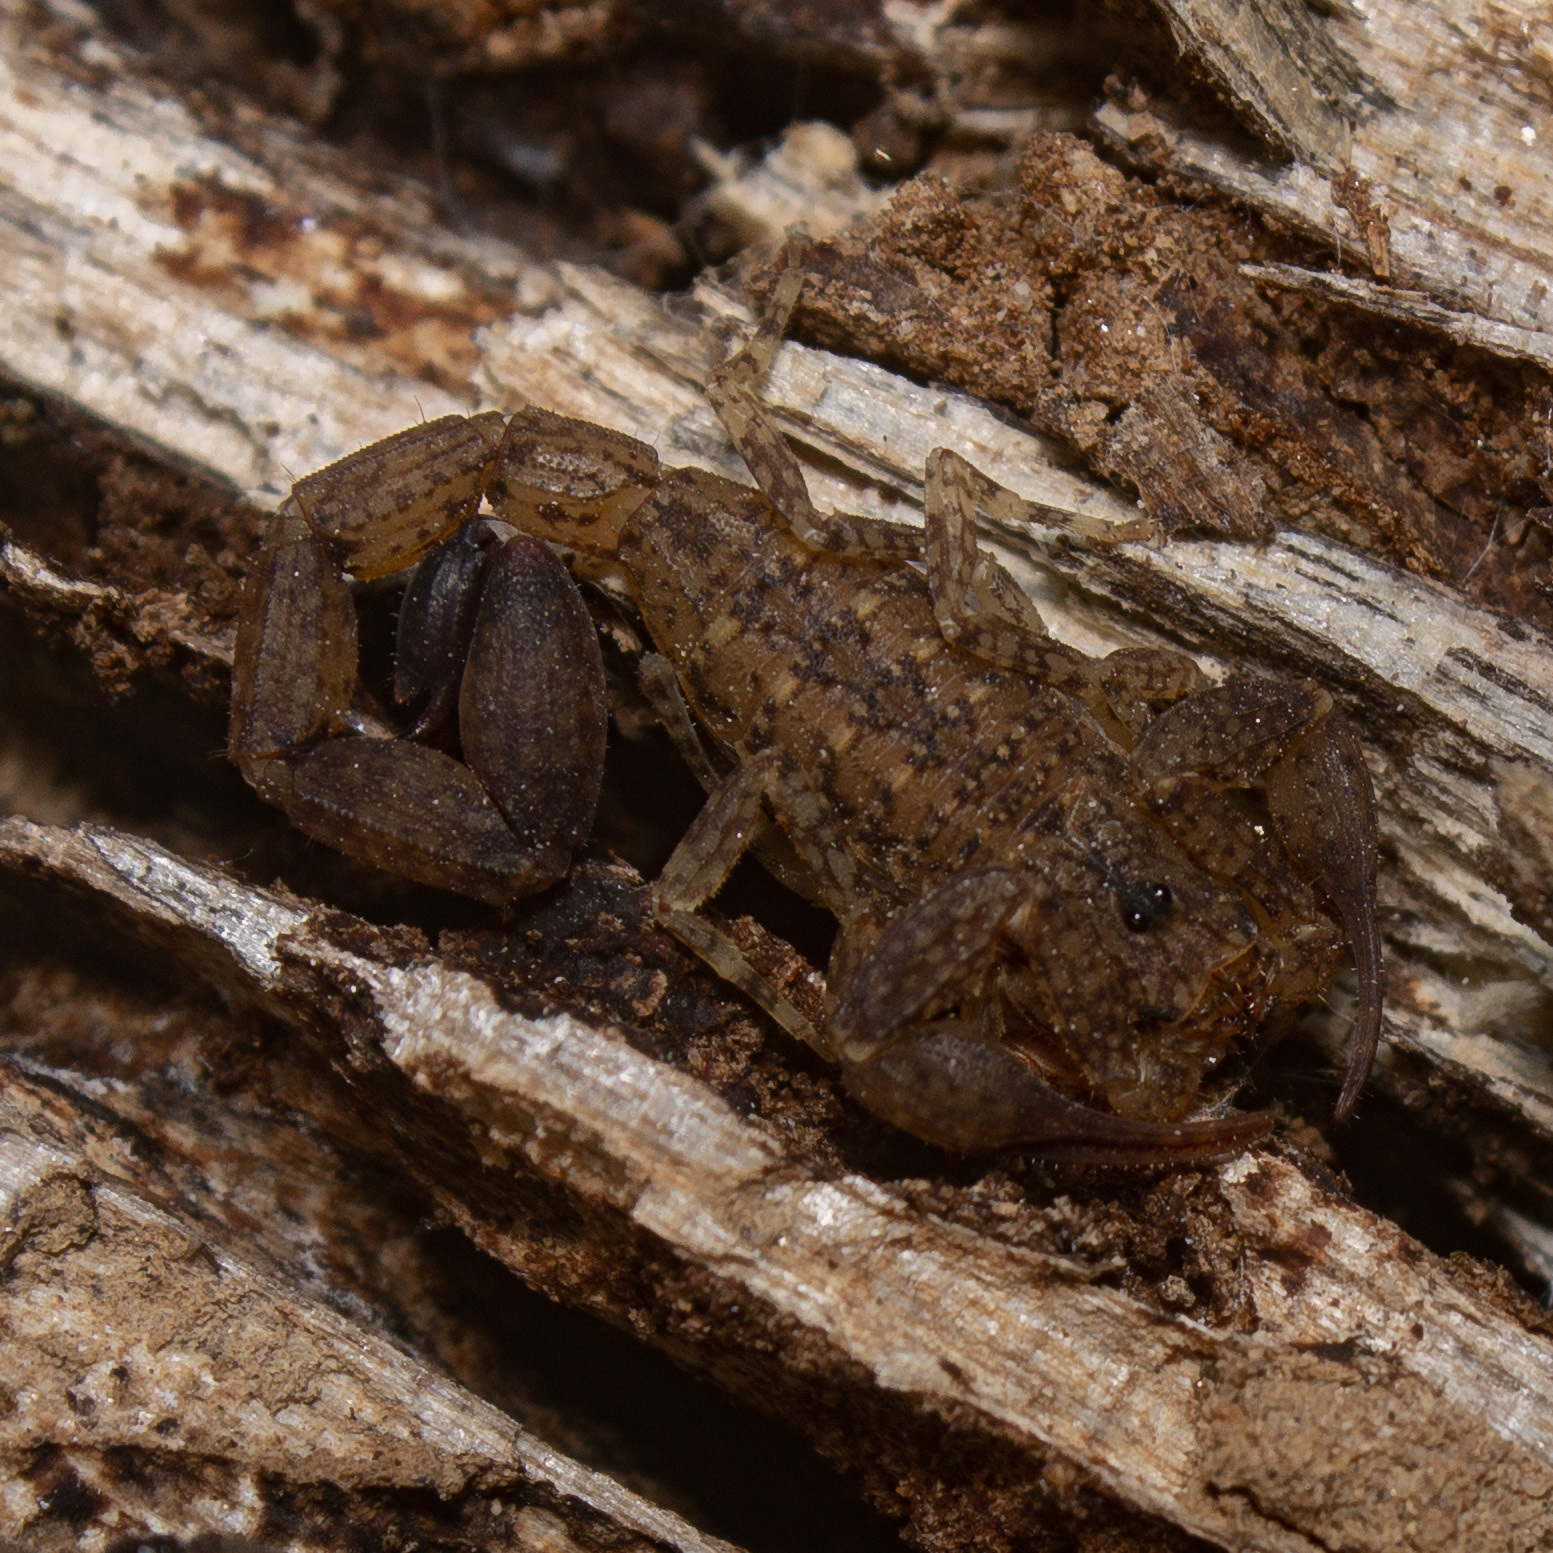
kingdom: Animalia
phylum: Arthropoda
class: Arachnida
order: Scorpiones
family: Buthidae
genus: Tityus
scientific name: Tityus tayrona
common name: Scorpiones
